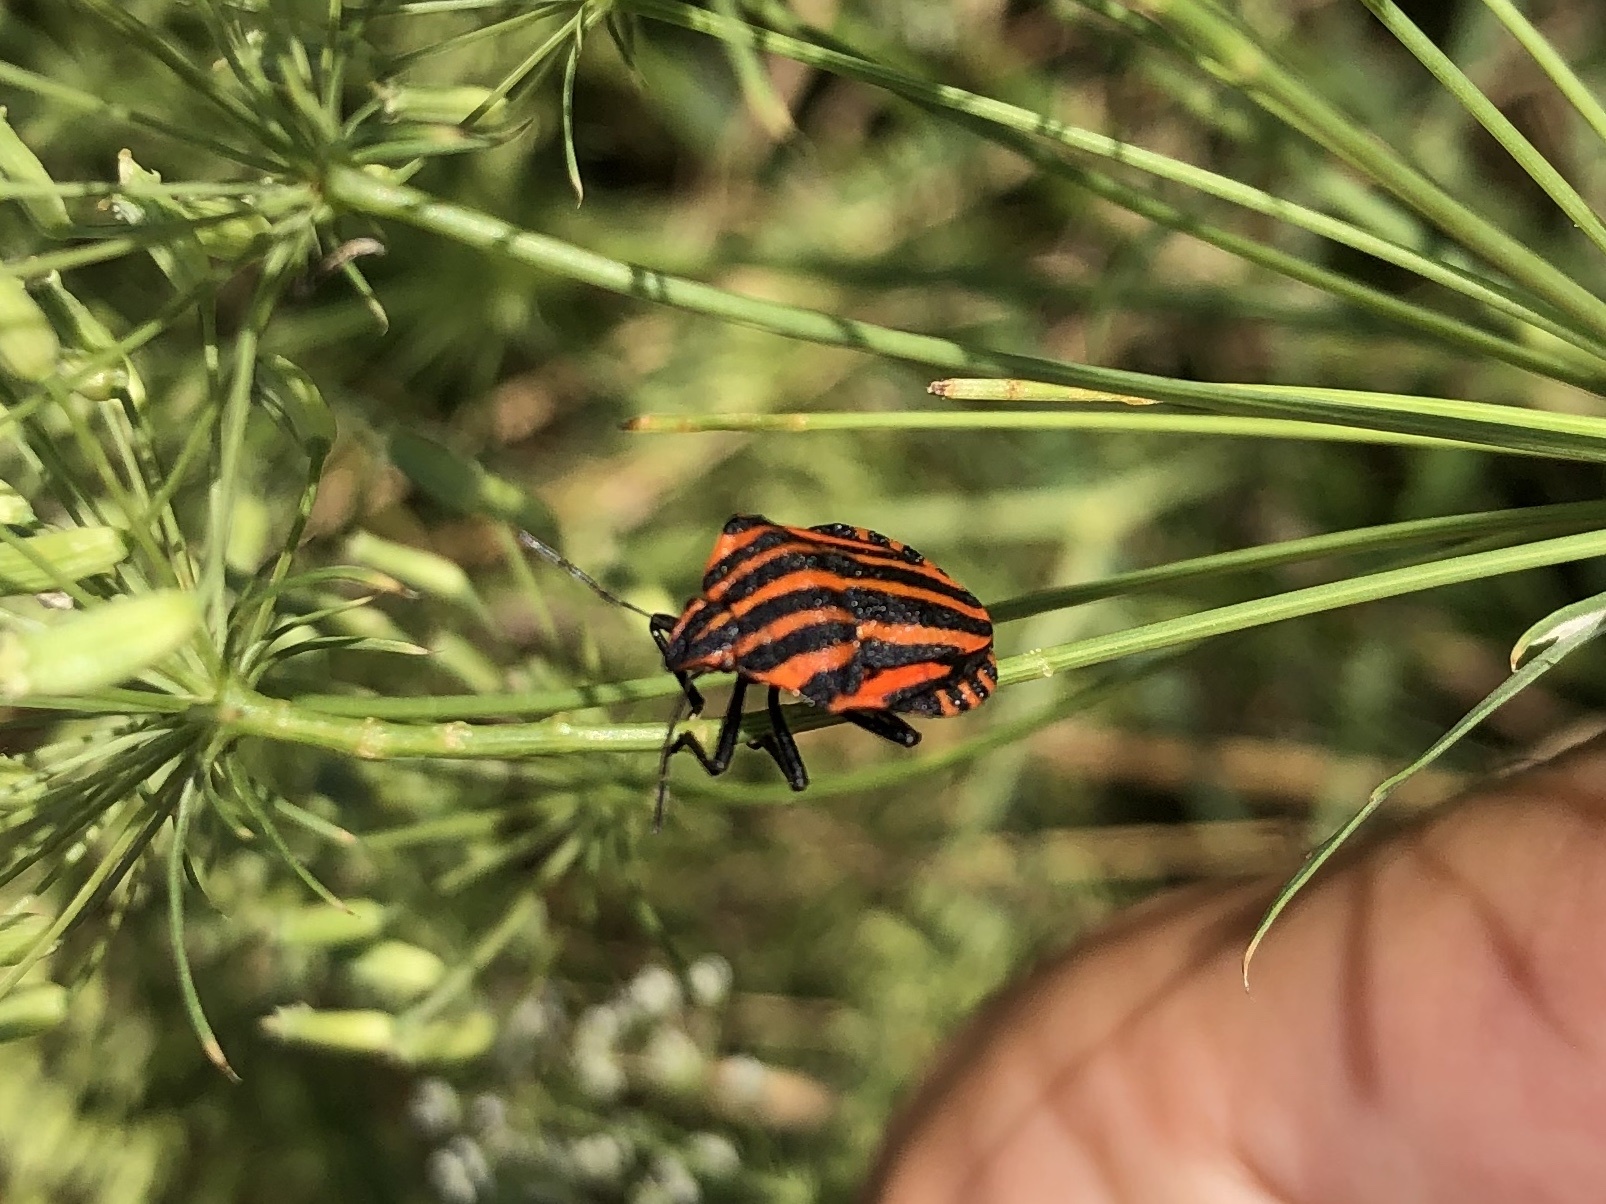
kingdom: Animalia
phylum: Arthropoda
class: Insecta
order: Hemiptera
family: Pentatomidae
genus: Graphosoma
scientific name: Graphosoma italicum
